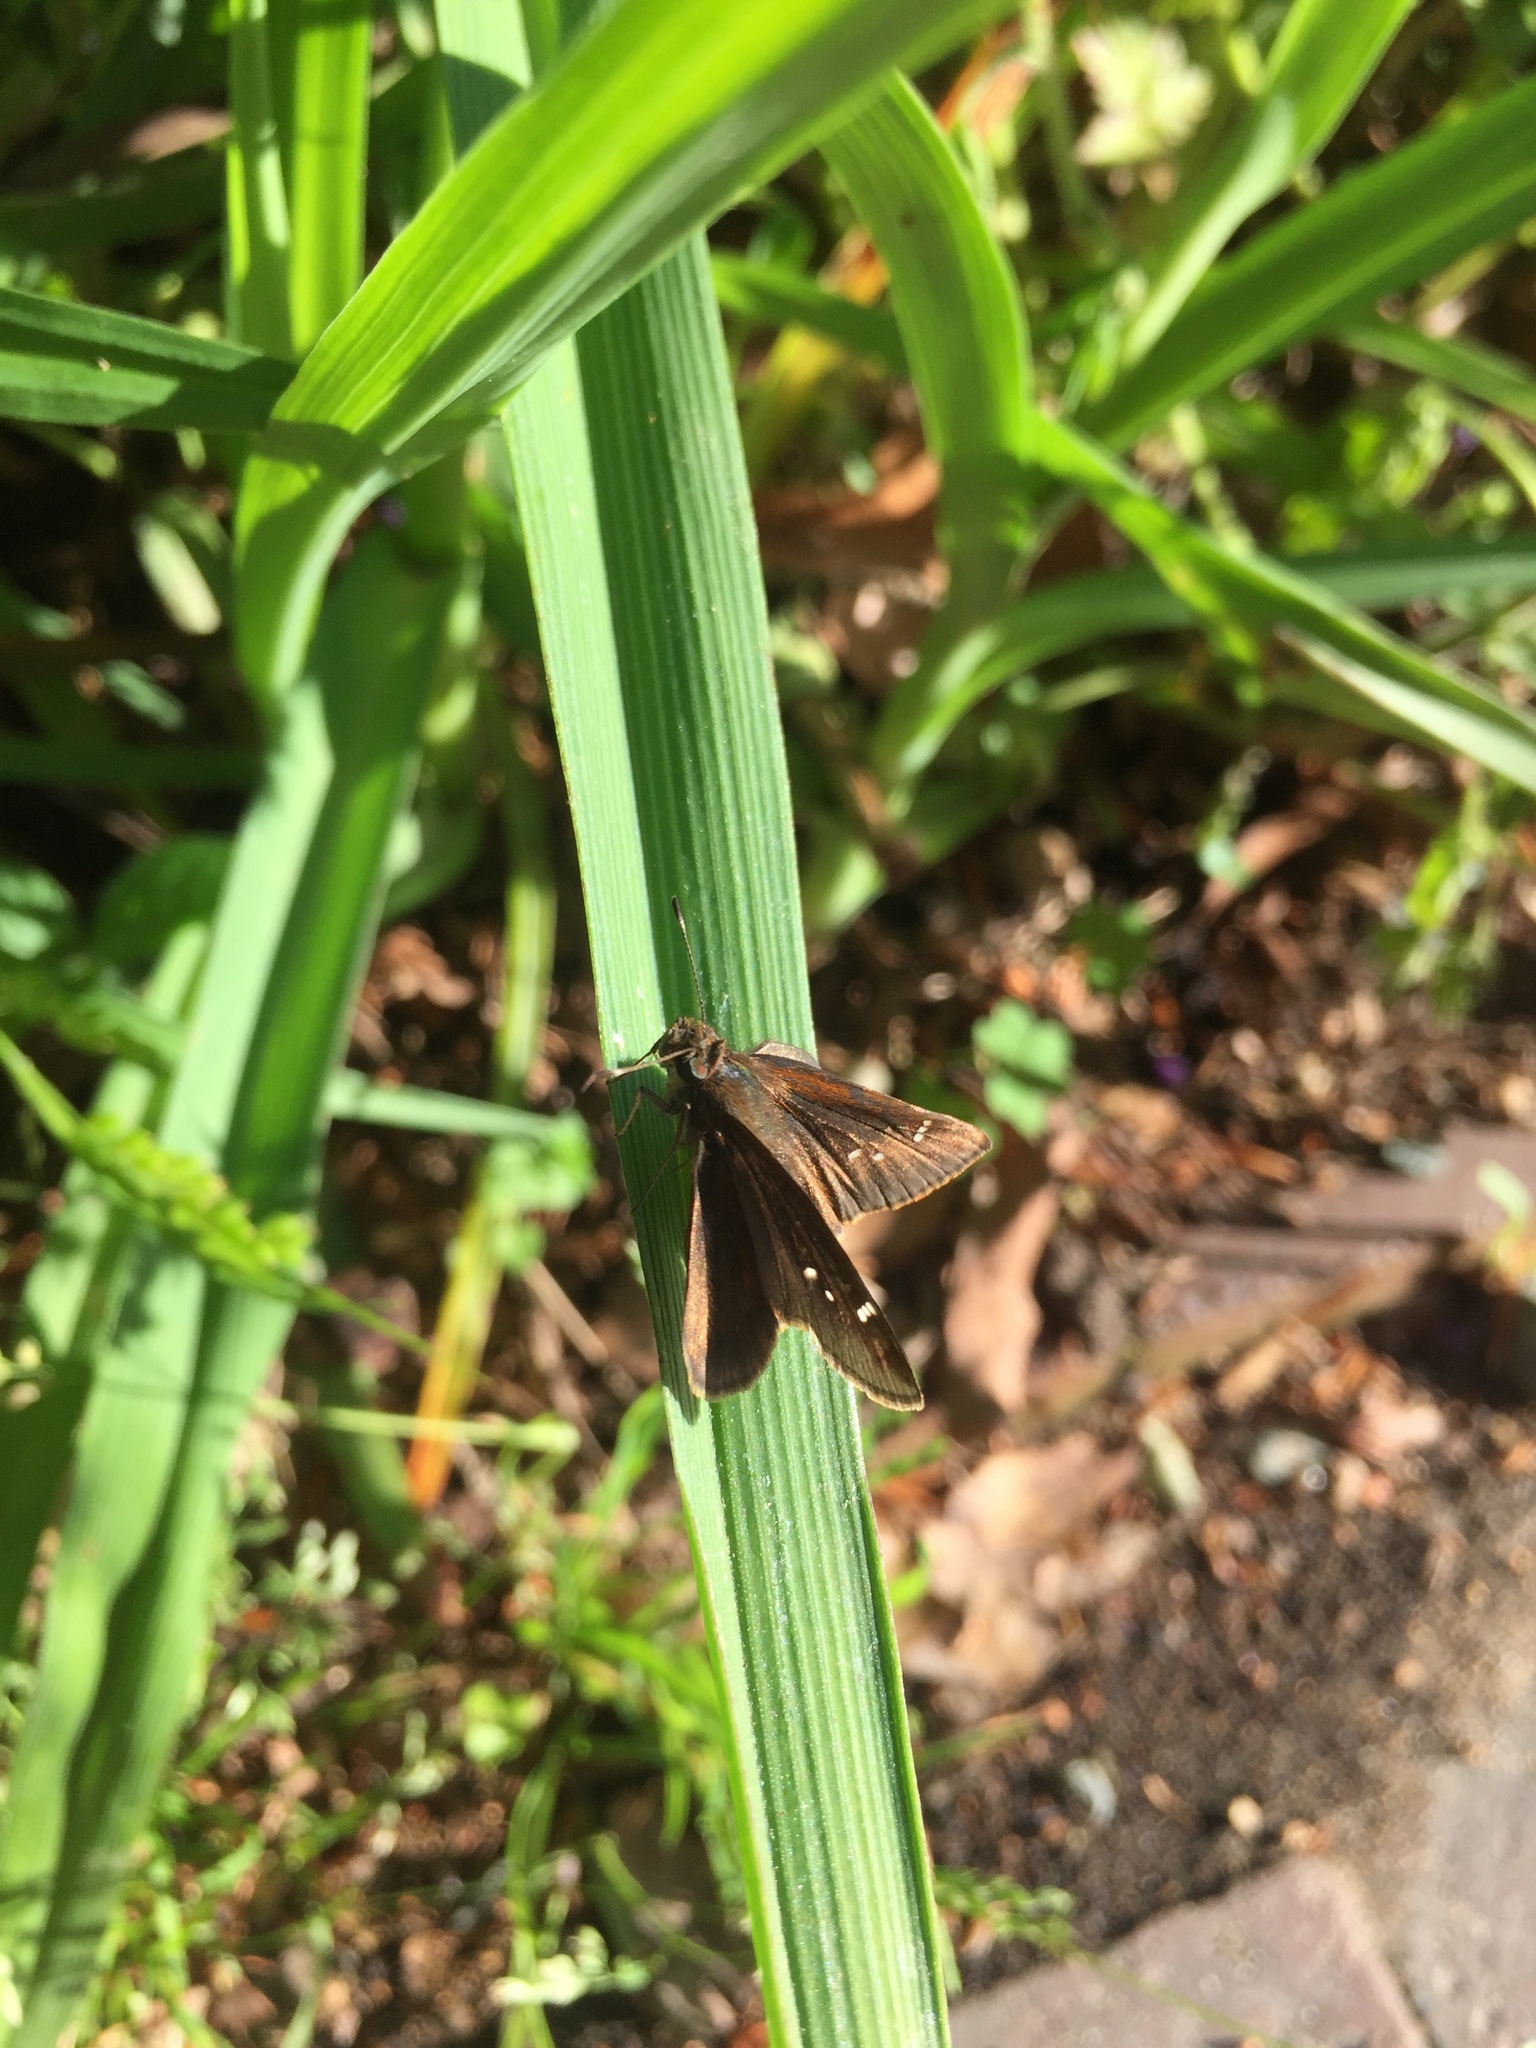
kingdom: Animalia
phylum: Arthropoda
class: Insecta
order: Lepidoptera
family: Hesperiidae
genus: Lerema
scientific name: Lerema accius
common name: Clouded skipper
